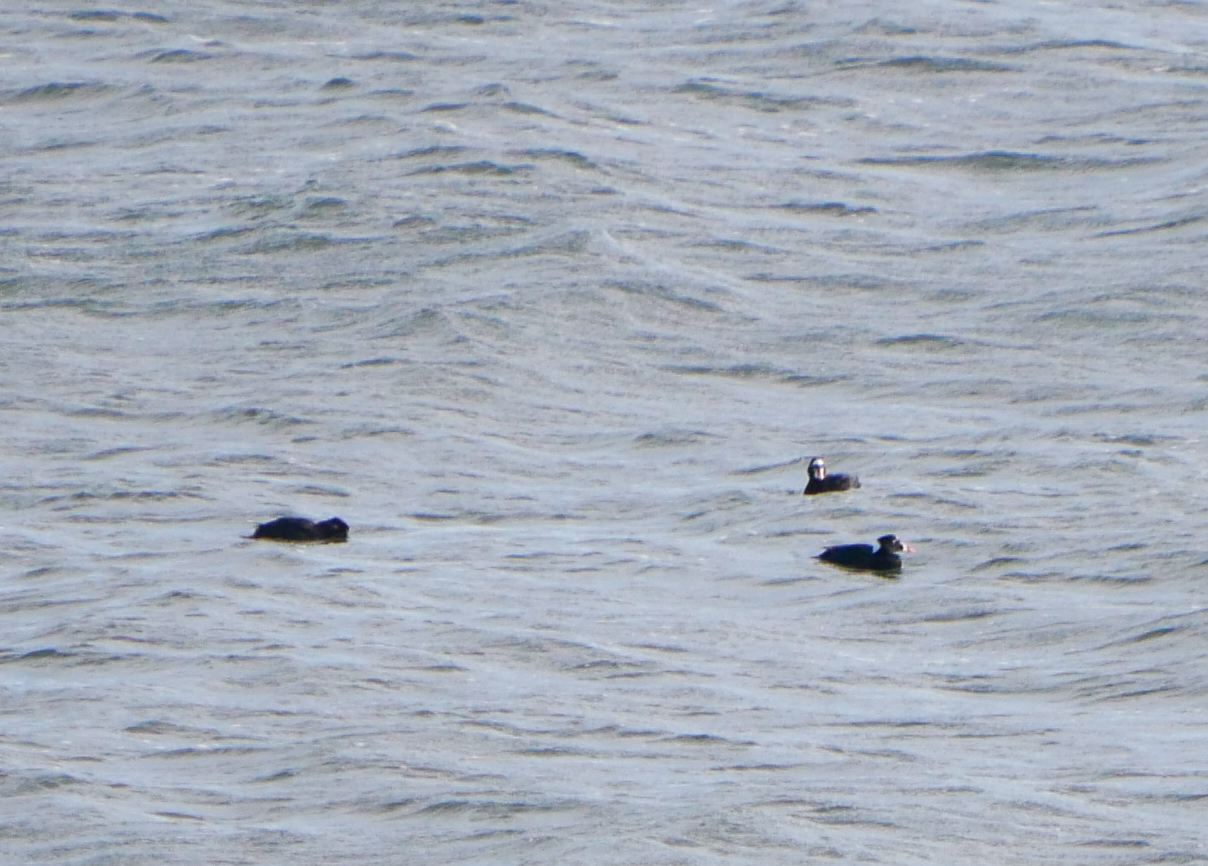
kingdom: Animalia
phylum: Chordata
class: Aves
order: Anseriformes
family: Anatidae
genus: Melanitta
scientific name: Melanitta perspicillata
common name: Surf scoter
